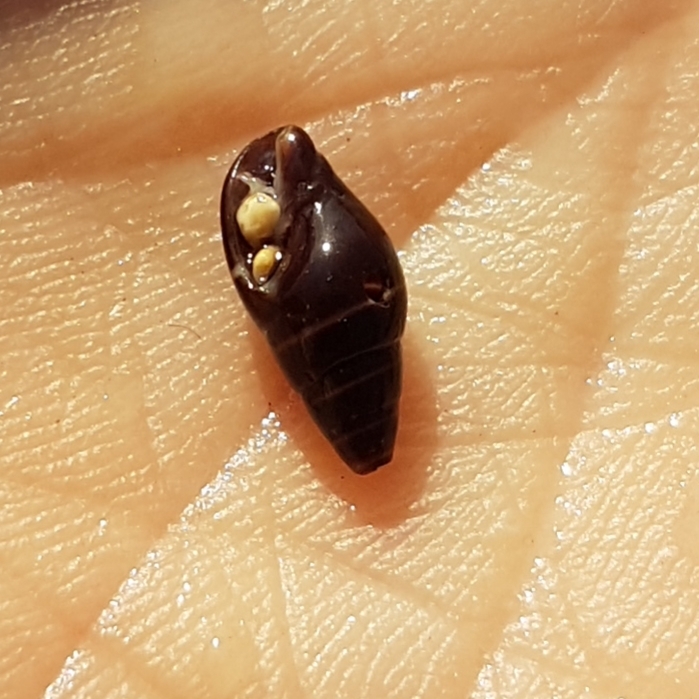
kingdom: Animalia
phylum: Mollusca
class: Gastropoda
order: Neogastropoda
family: Costellariidae
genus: Pusia
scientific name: Pusia ebenus
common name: Brown mitre
